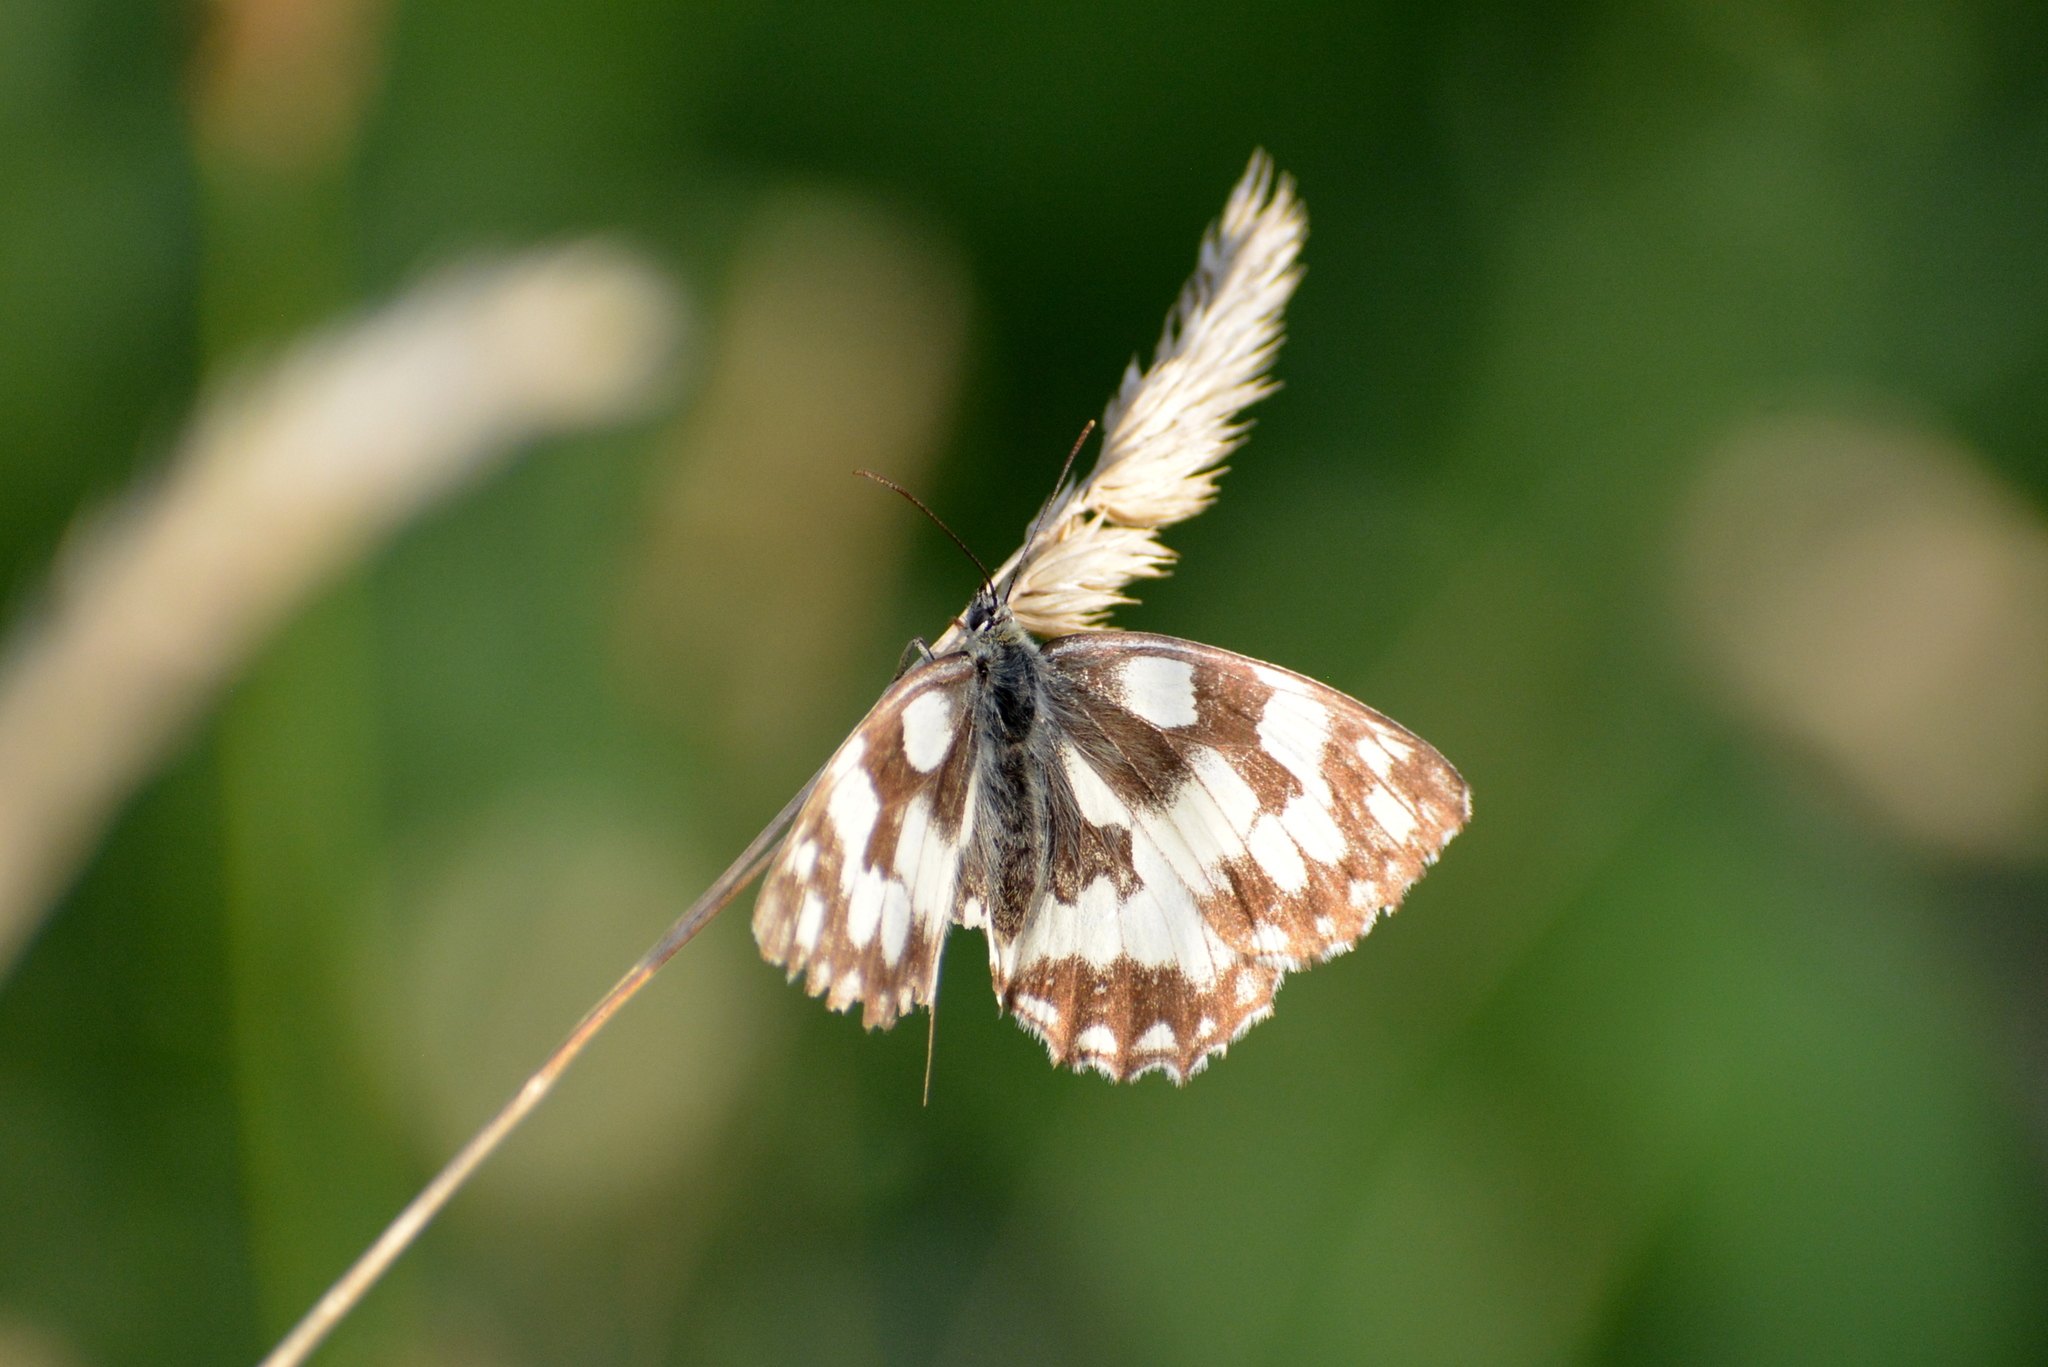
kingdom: Animalia
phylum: Arthropoda
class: Insecta
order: Lepidoptera
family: Nymphalidae
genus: Melanargia
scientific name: Melanargia galathea
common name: Marbled white
